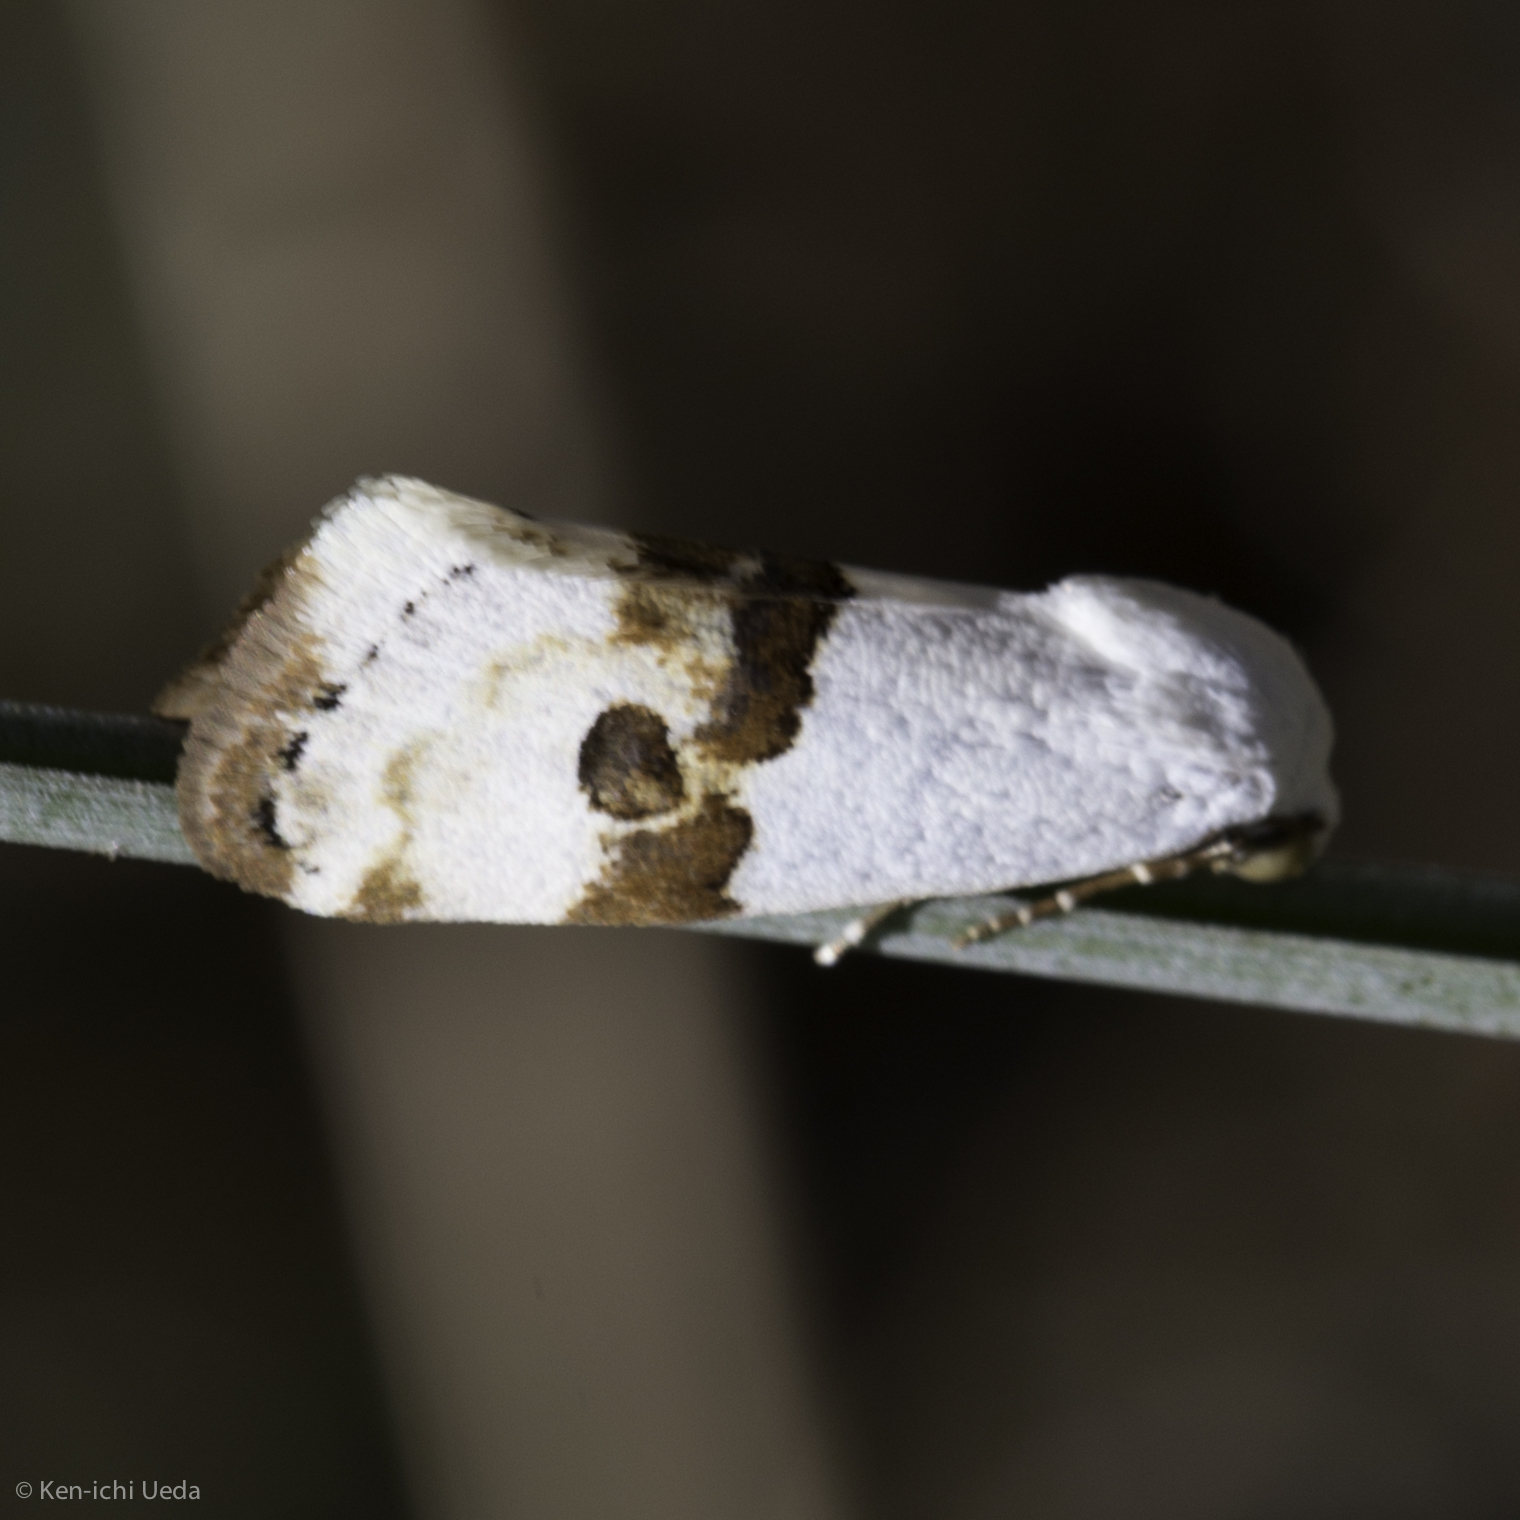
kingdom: Animalia
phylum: Arthropoda
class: Insecta
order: Lepidoptera
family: Noctuidae
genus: Ponometia
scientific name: Ponometia elegantula
